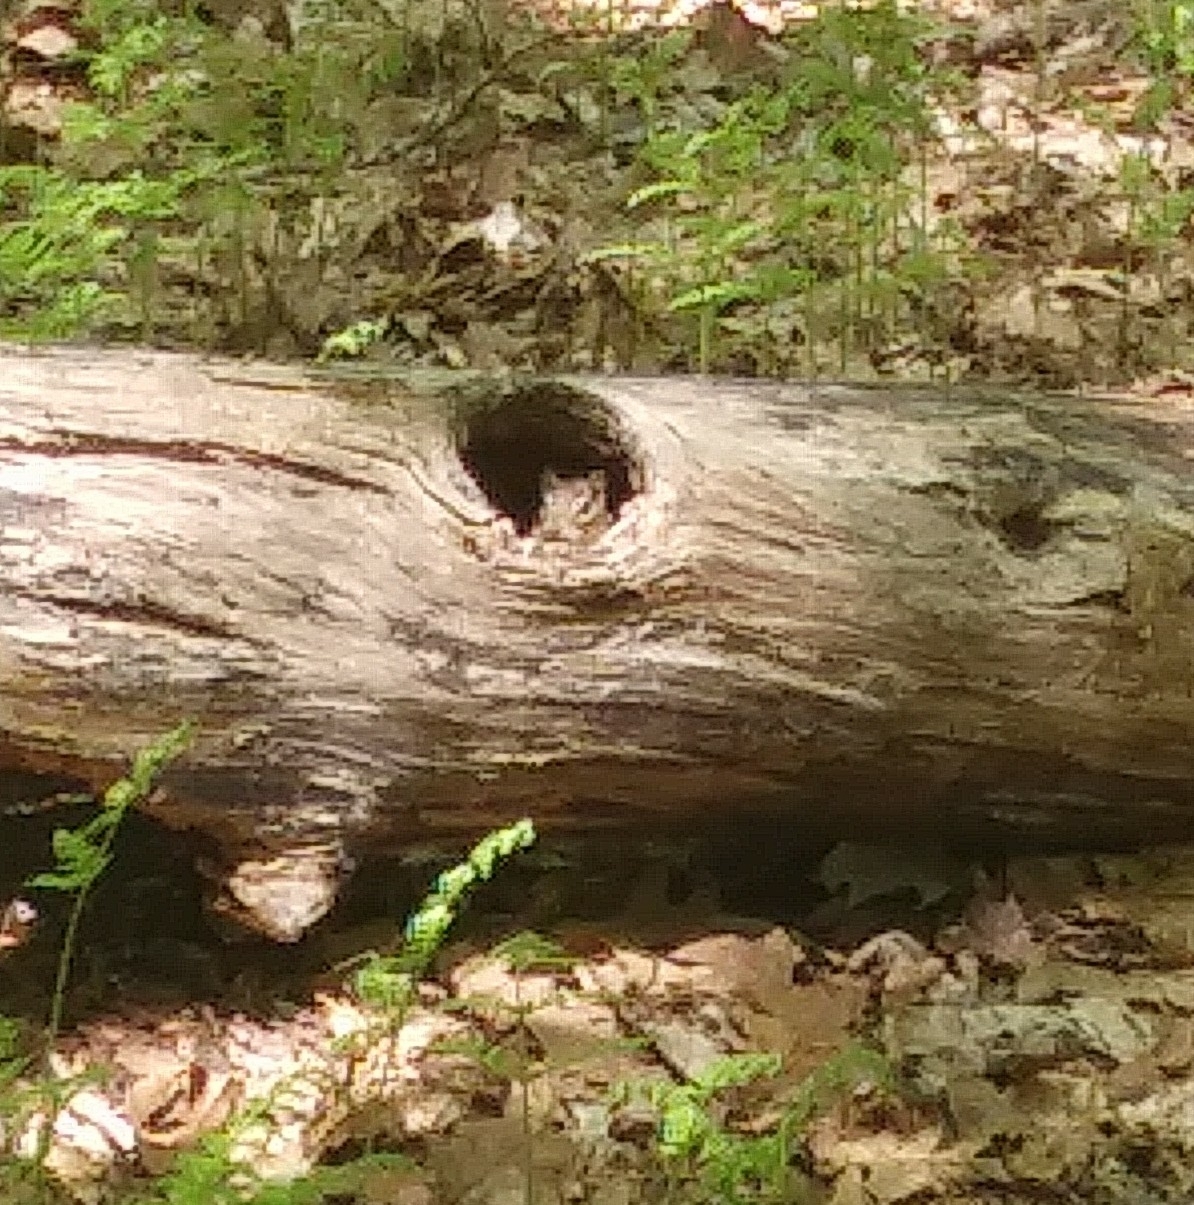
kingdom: Animalia
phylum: Chordata
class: Mammalia
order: Rodentia
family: Sciuridae
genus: Tamias
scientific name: Tamias striatus
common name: Eastern chipmunk
